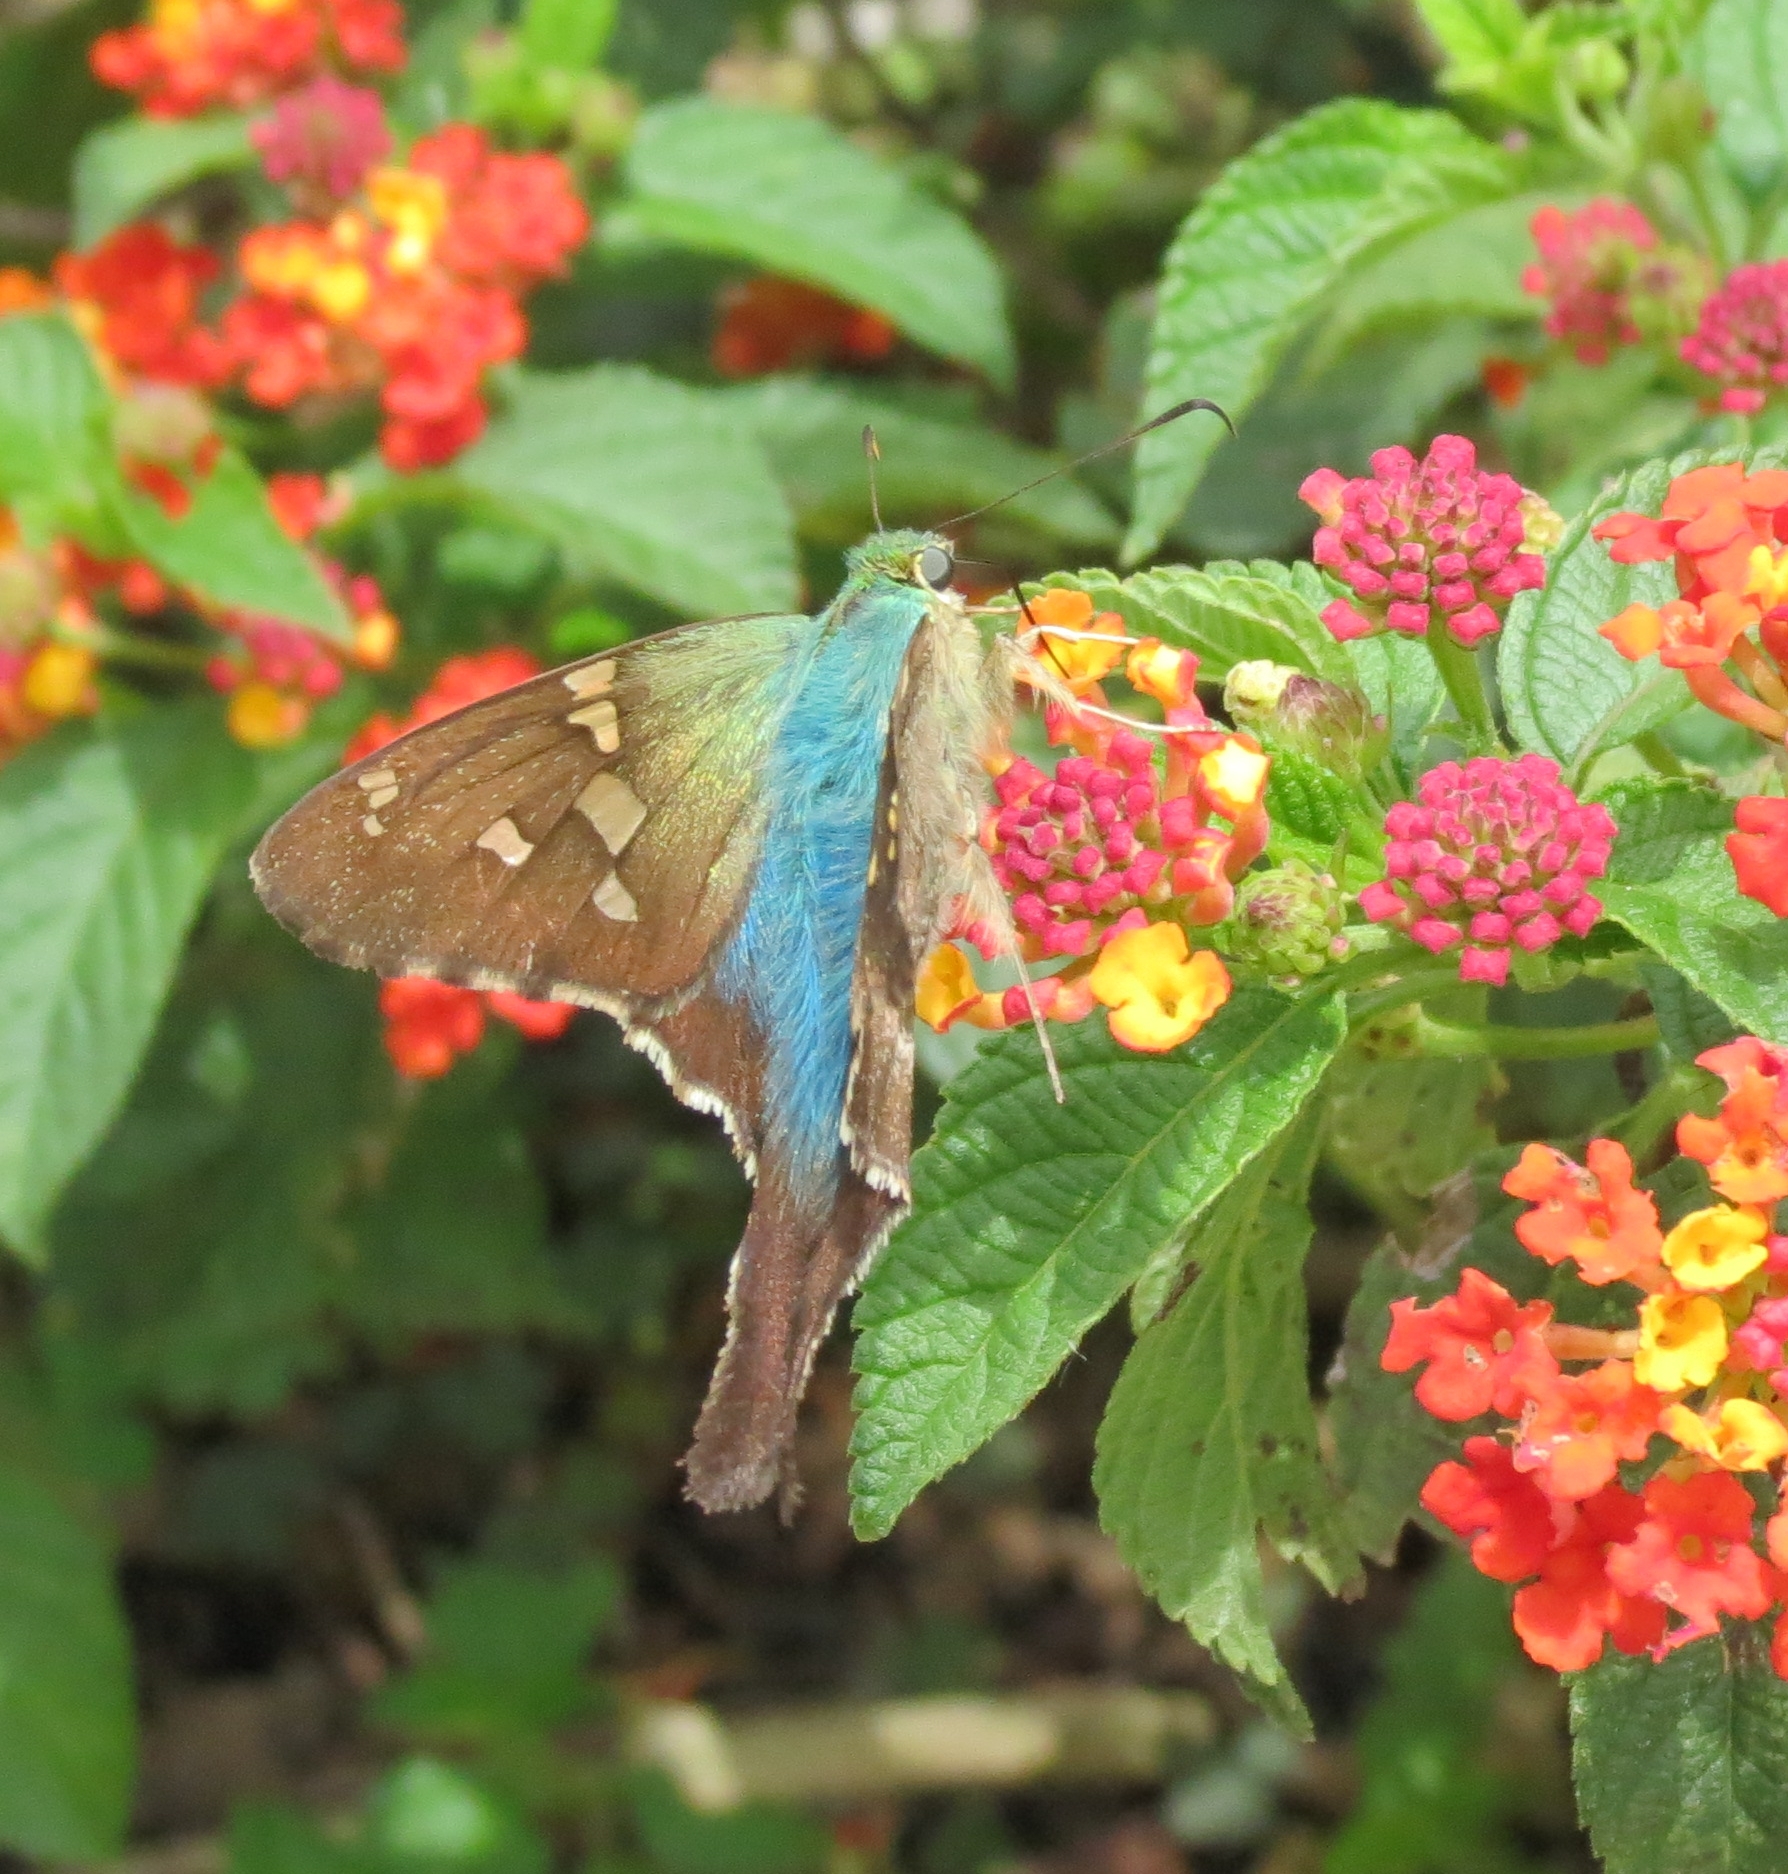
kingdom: Animalia
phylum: Arthropoda
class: Insecta
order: Lepidoptera
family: Hesperiidae
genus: Urbanus
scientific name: Urbanus proteus
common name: Long-tailed skipper
